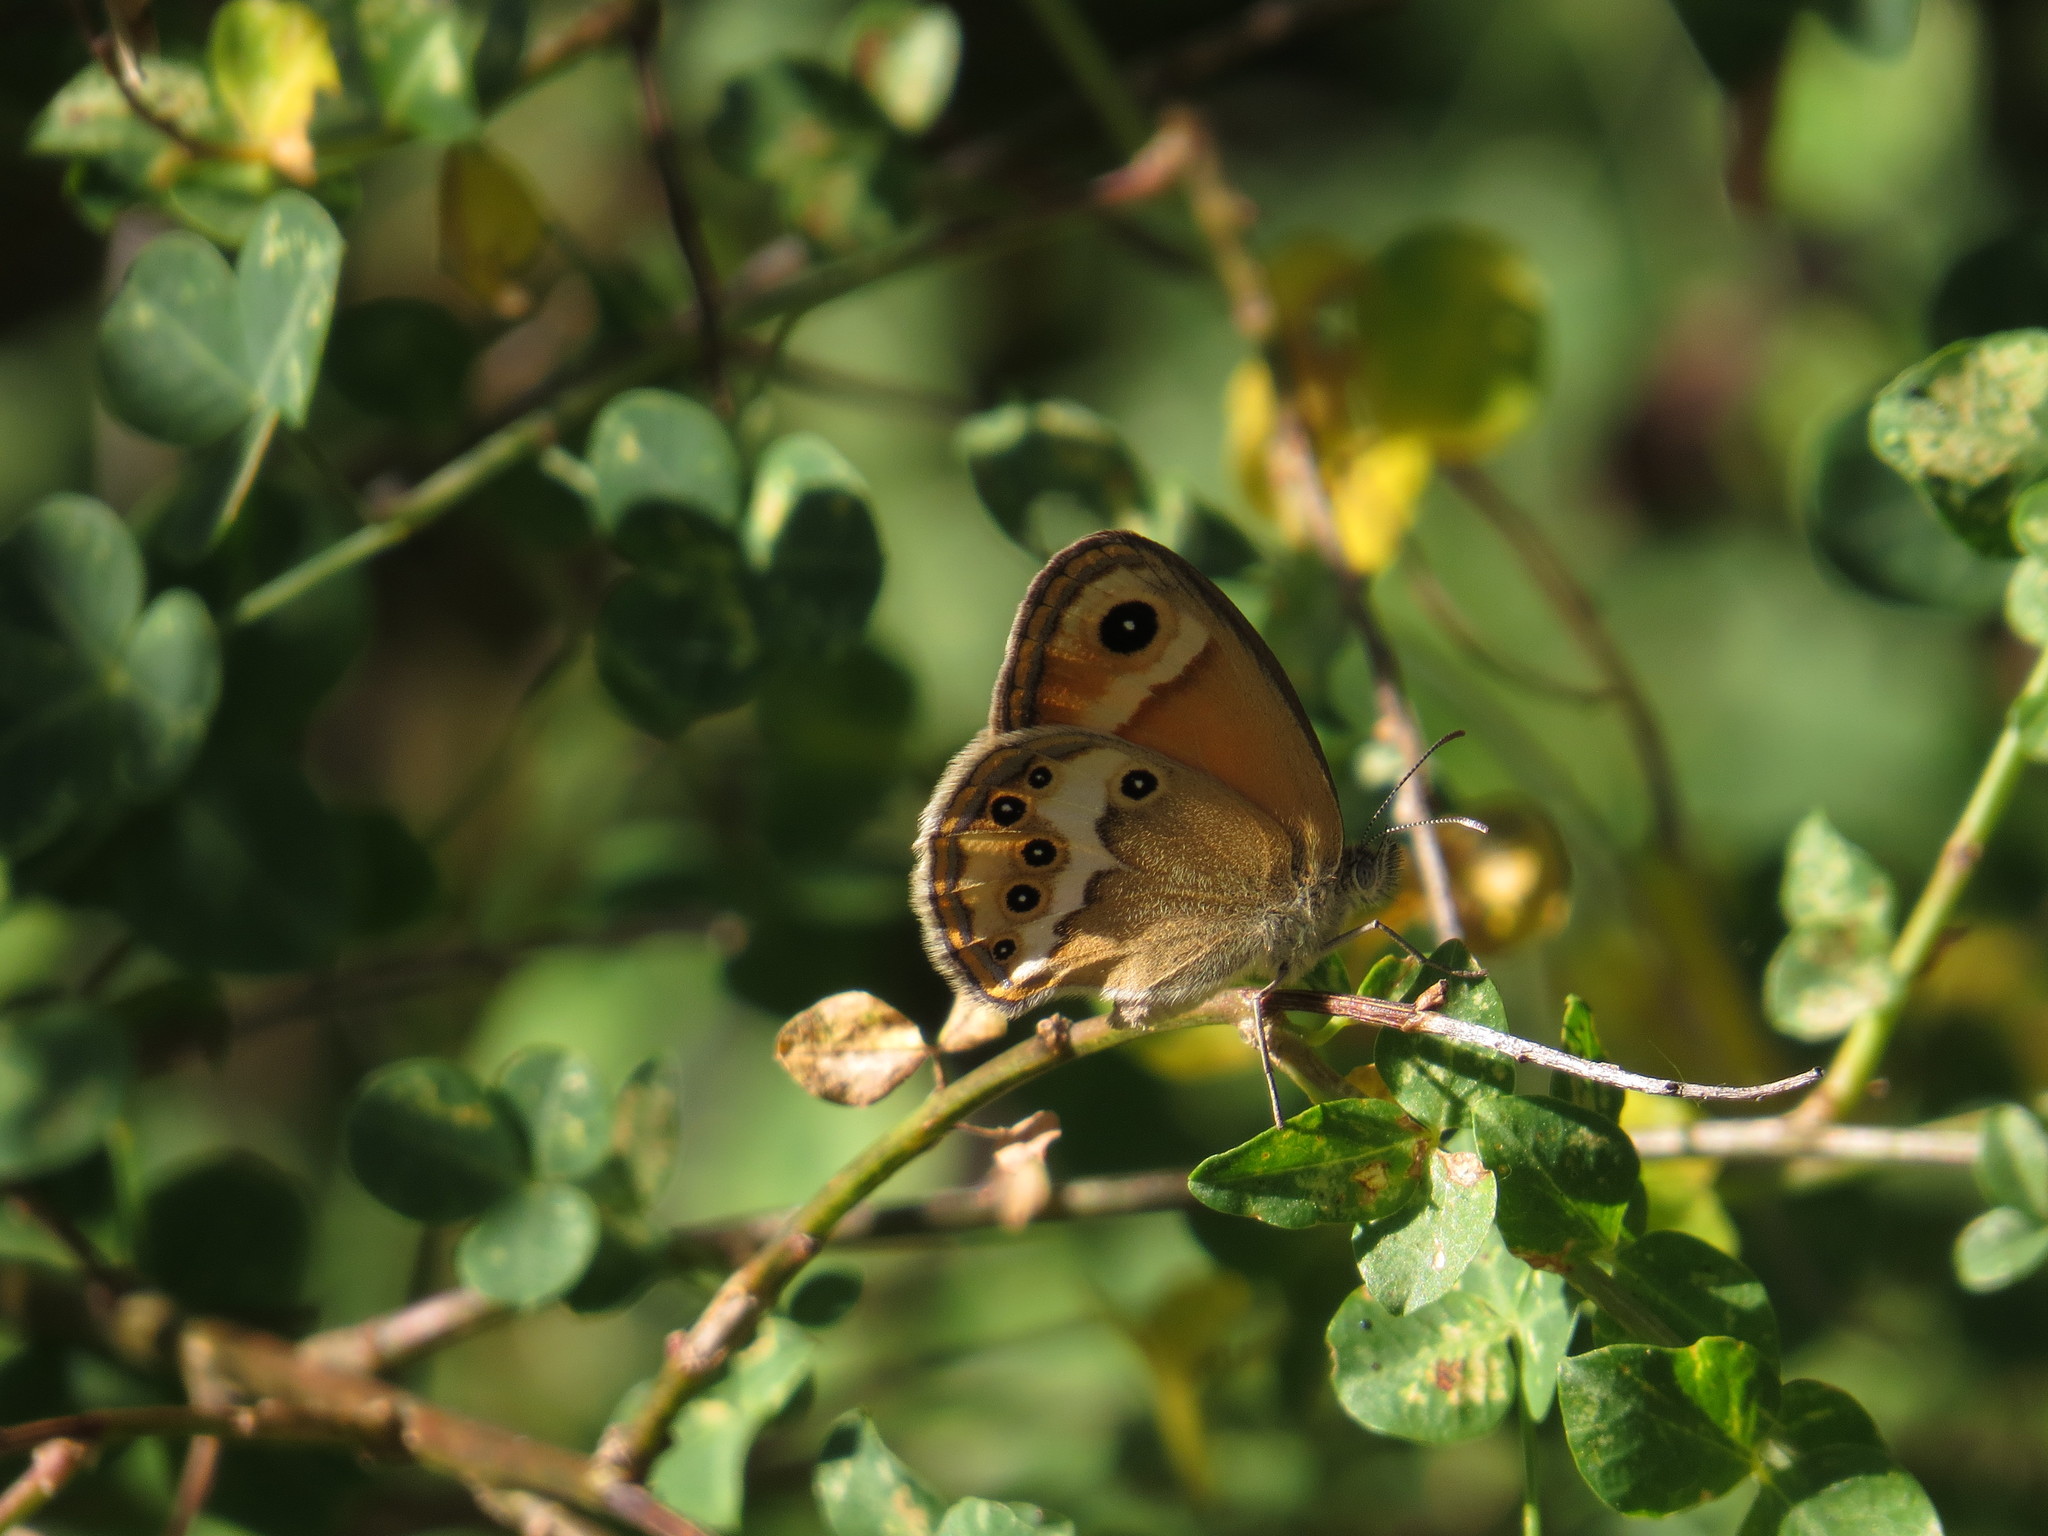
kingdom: Animalia
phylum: Arthropoda
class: Insecta
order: Lepidoptera
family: Nymphalidae
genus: Coenonympha
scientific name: Coenonympha dorus
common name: Dusky heath
